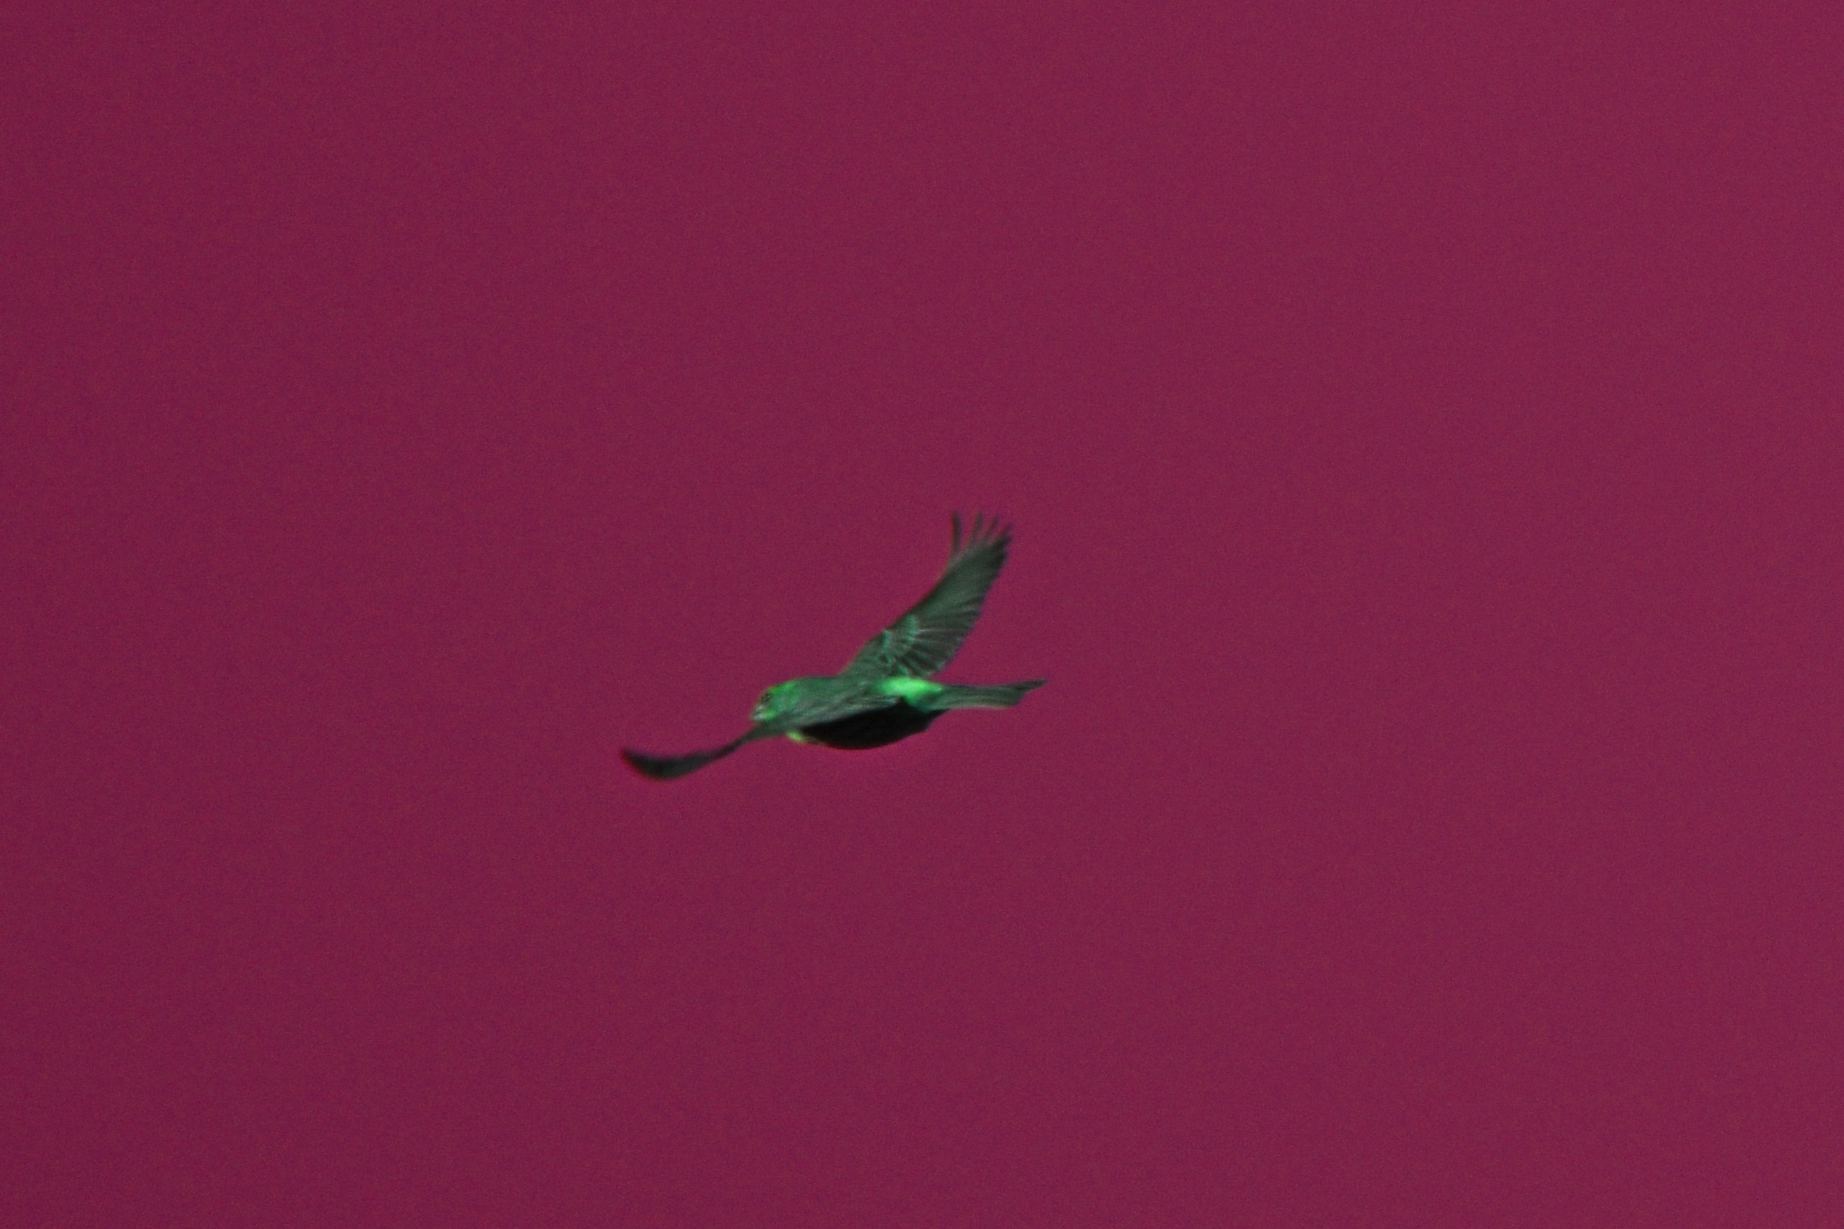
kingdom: Animalia
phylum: Chordata
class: Aves
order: Passeriformes
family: Fringillidae
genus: Haemorhous
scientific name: Haemorhous mexicanus
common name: House finch
